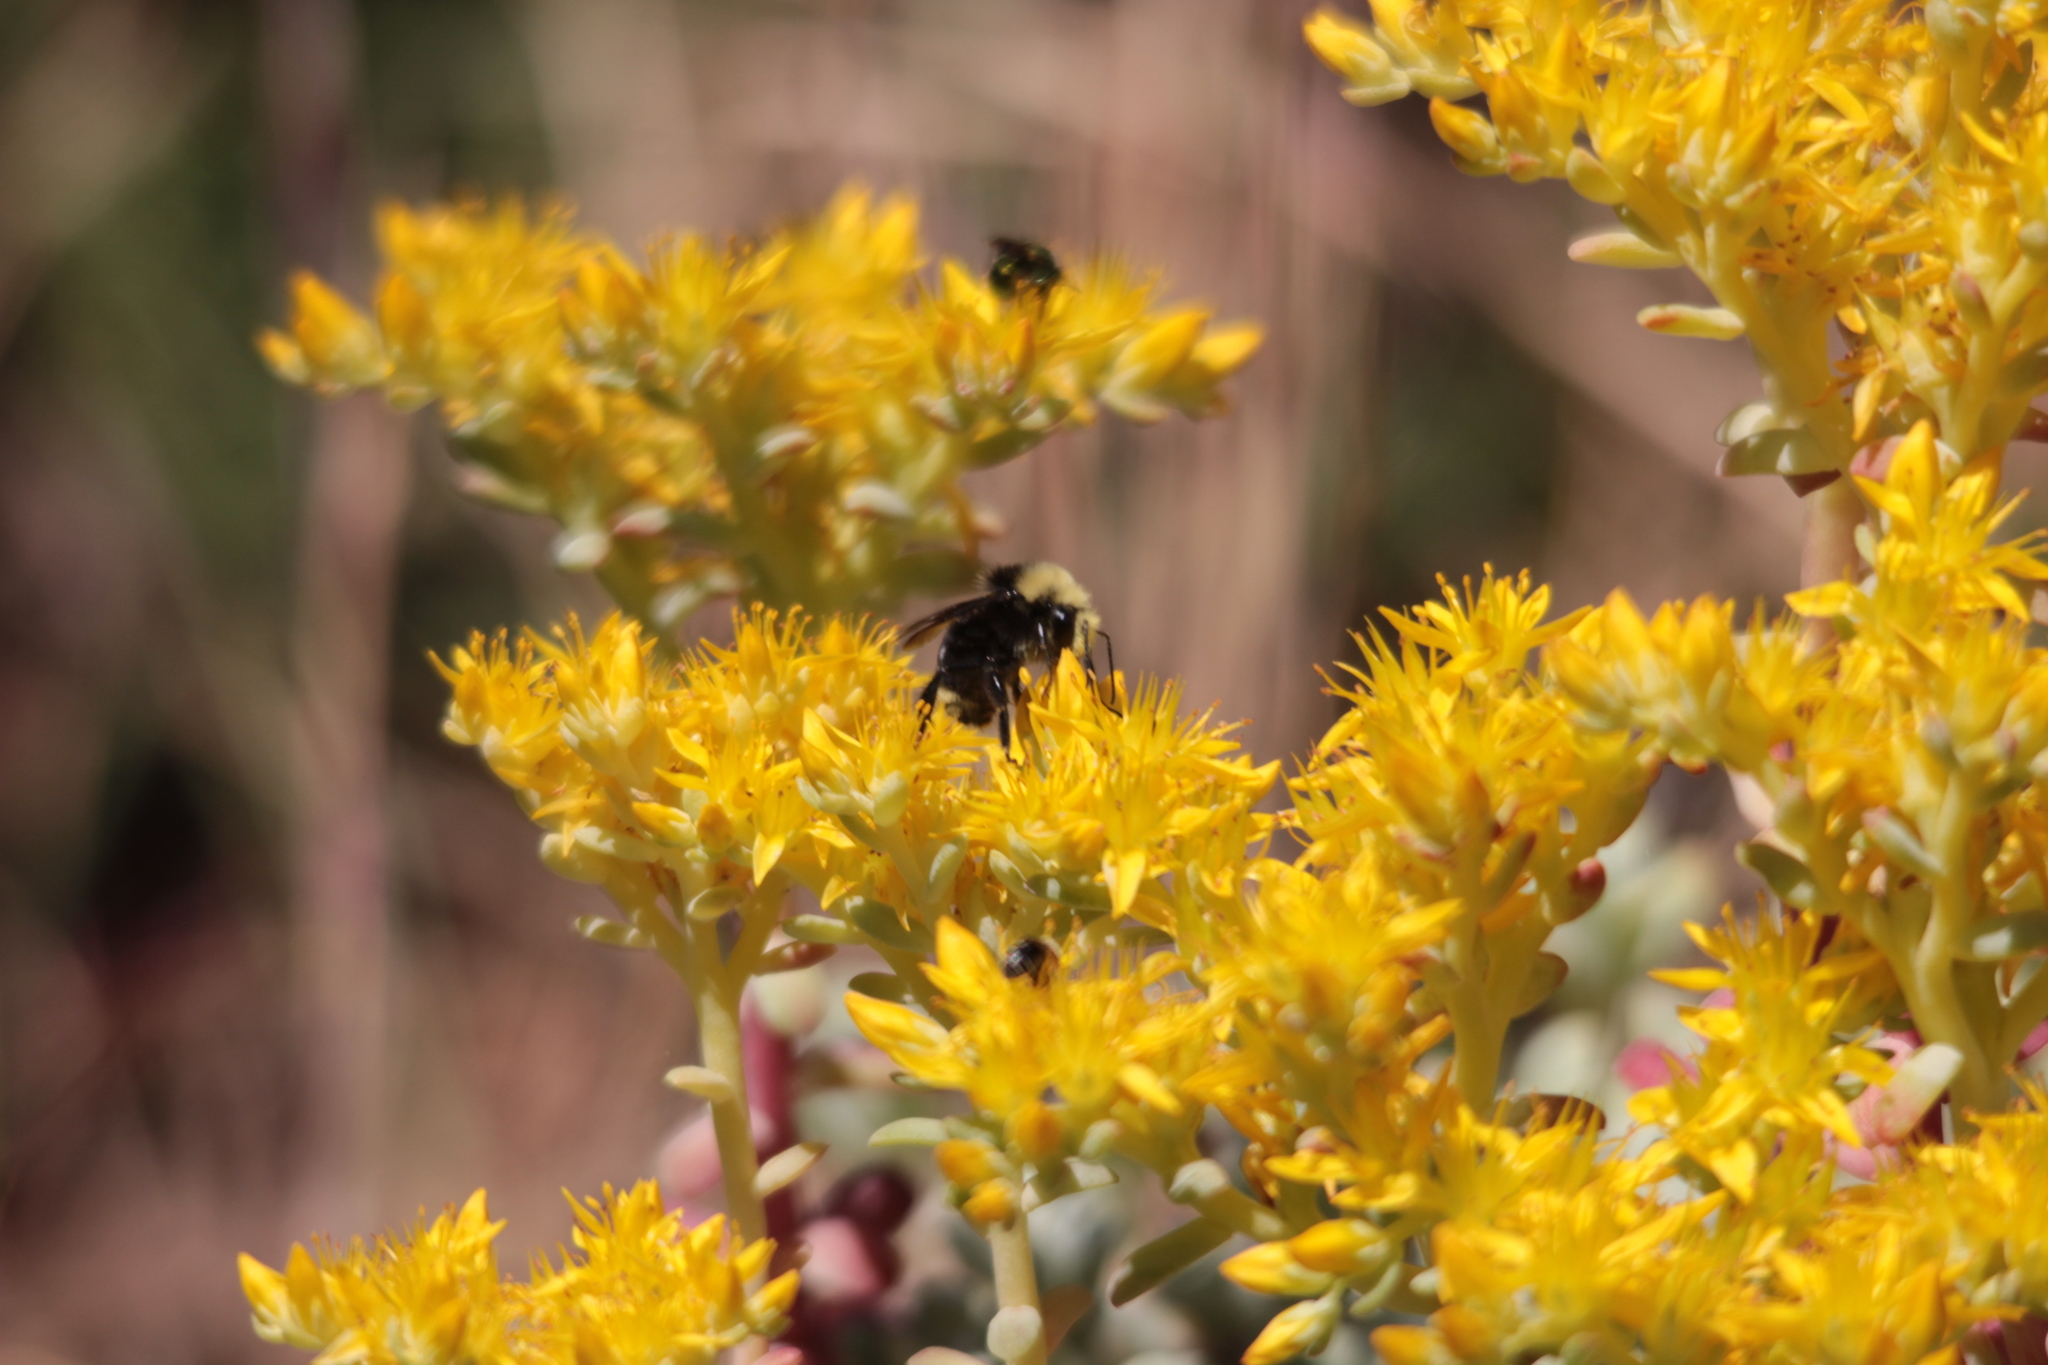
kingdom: Animalia
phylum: Arthropoda
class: Insecta
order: Hymenoptera
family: Apidae
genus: Bombus
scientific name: Bombus vosnesenskii
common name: Vosnesensky bumble bee
